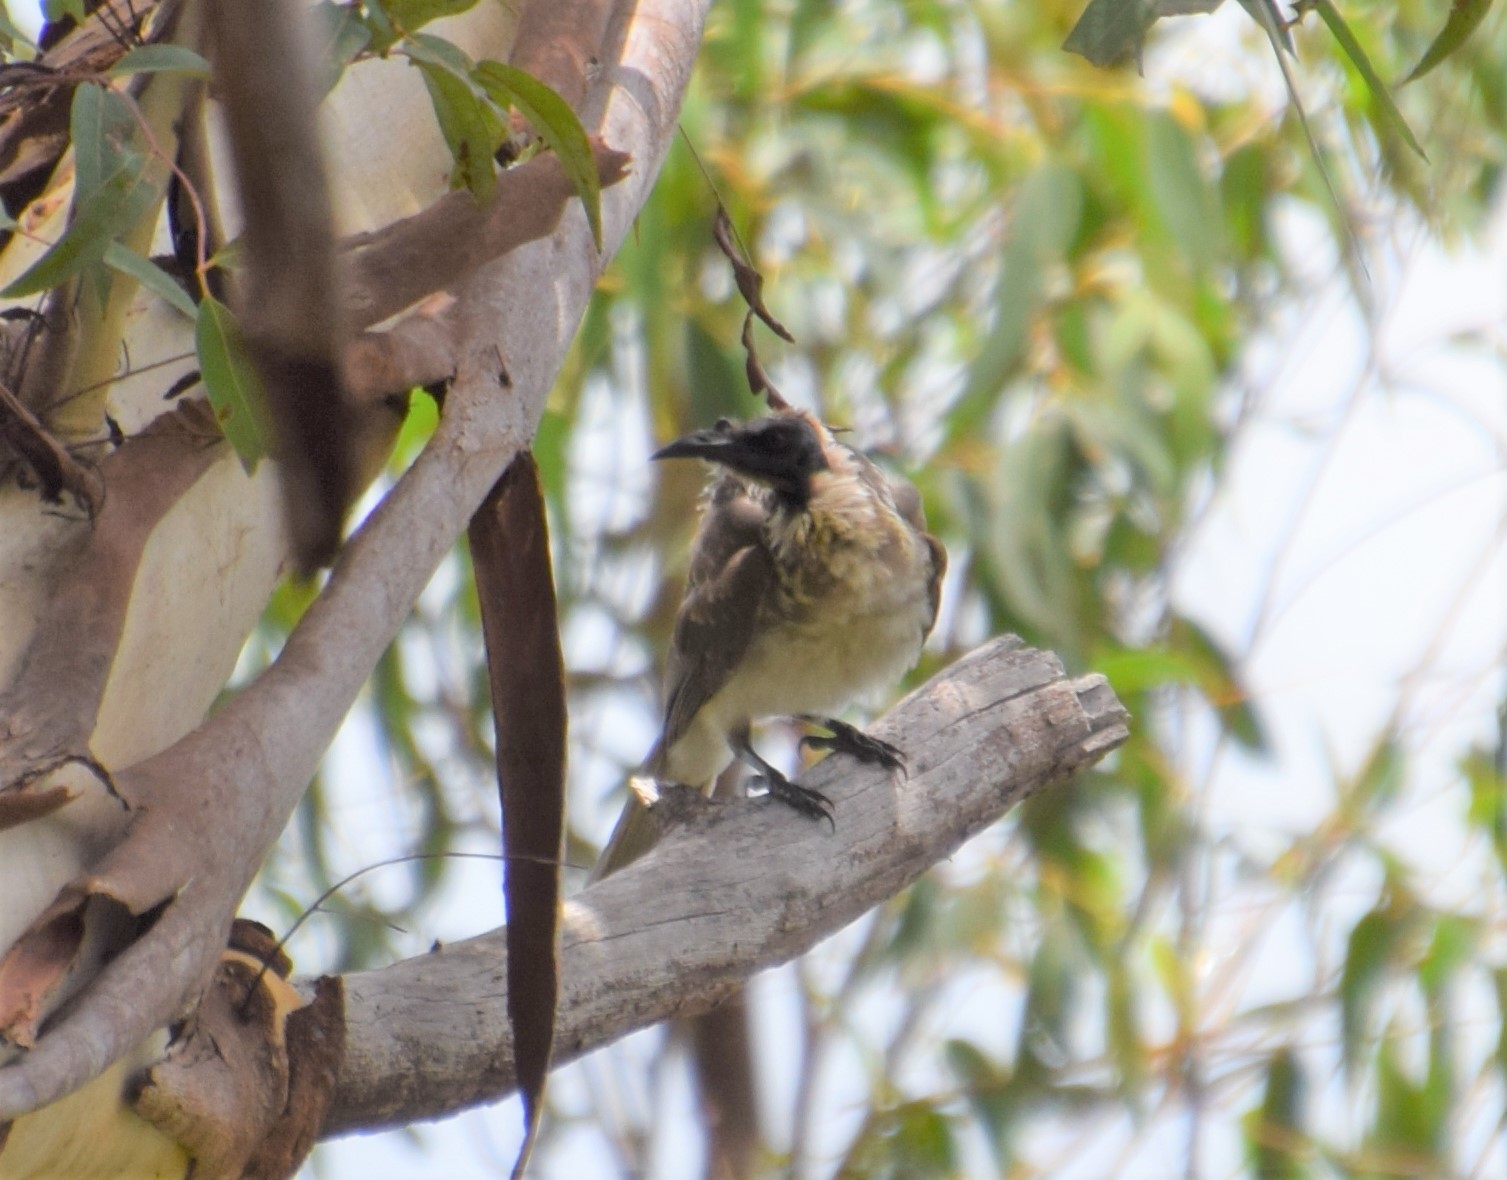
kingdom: Animalia
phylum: Chordata
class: Aves
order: Passeriformes
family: Meliphagidae
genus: Philemon
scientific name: Philemon corniculatus
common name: Noisy friarbird
